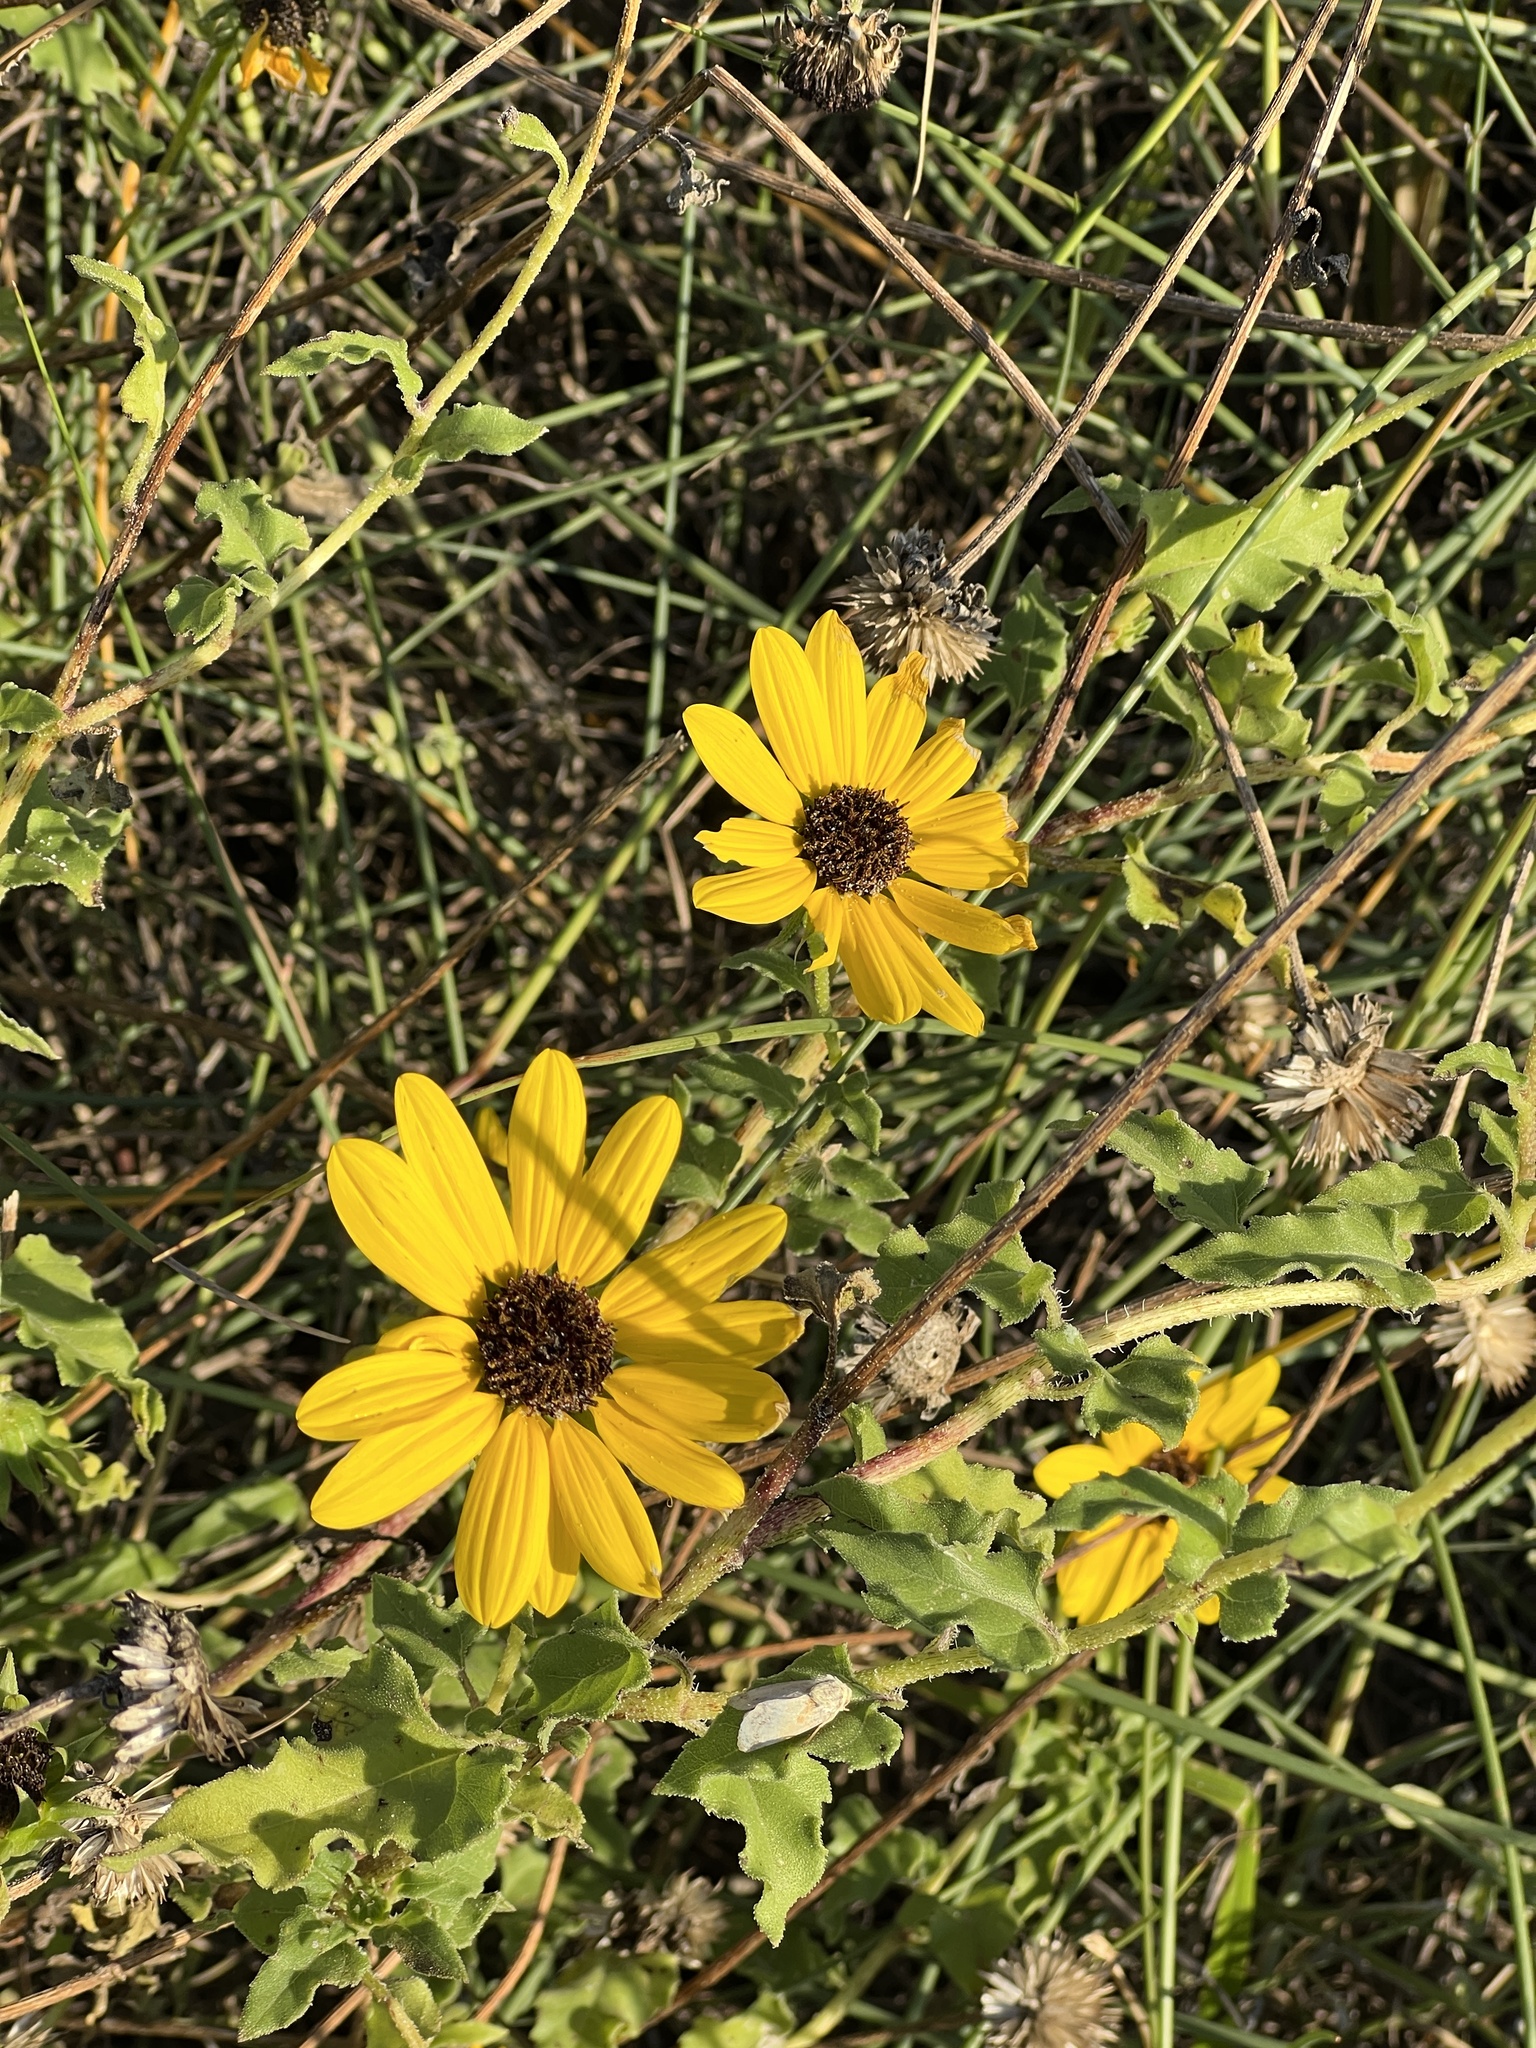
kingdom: Plantae
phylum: Tracheophyta
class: Magnoliopsida
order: Asterales
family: Asteraceae
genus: Helianthus
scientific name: Helianthus annuus
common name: Sunflower
